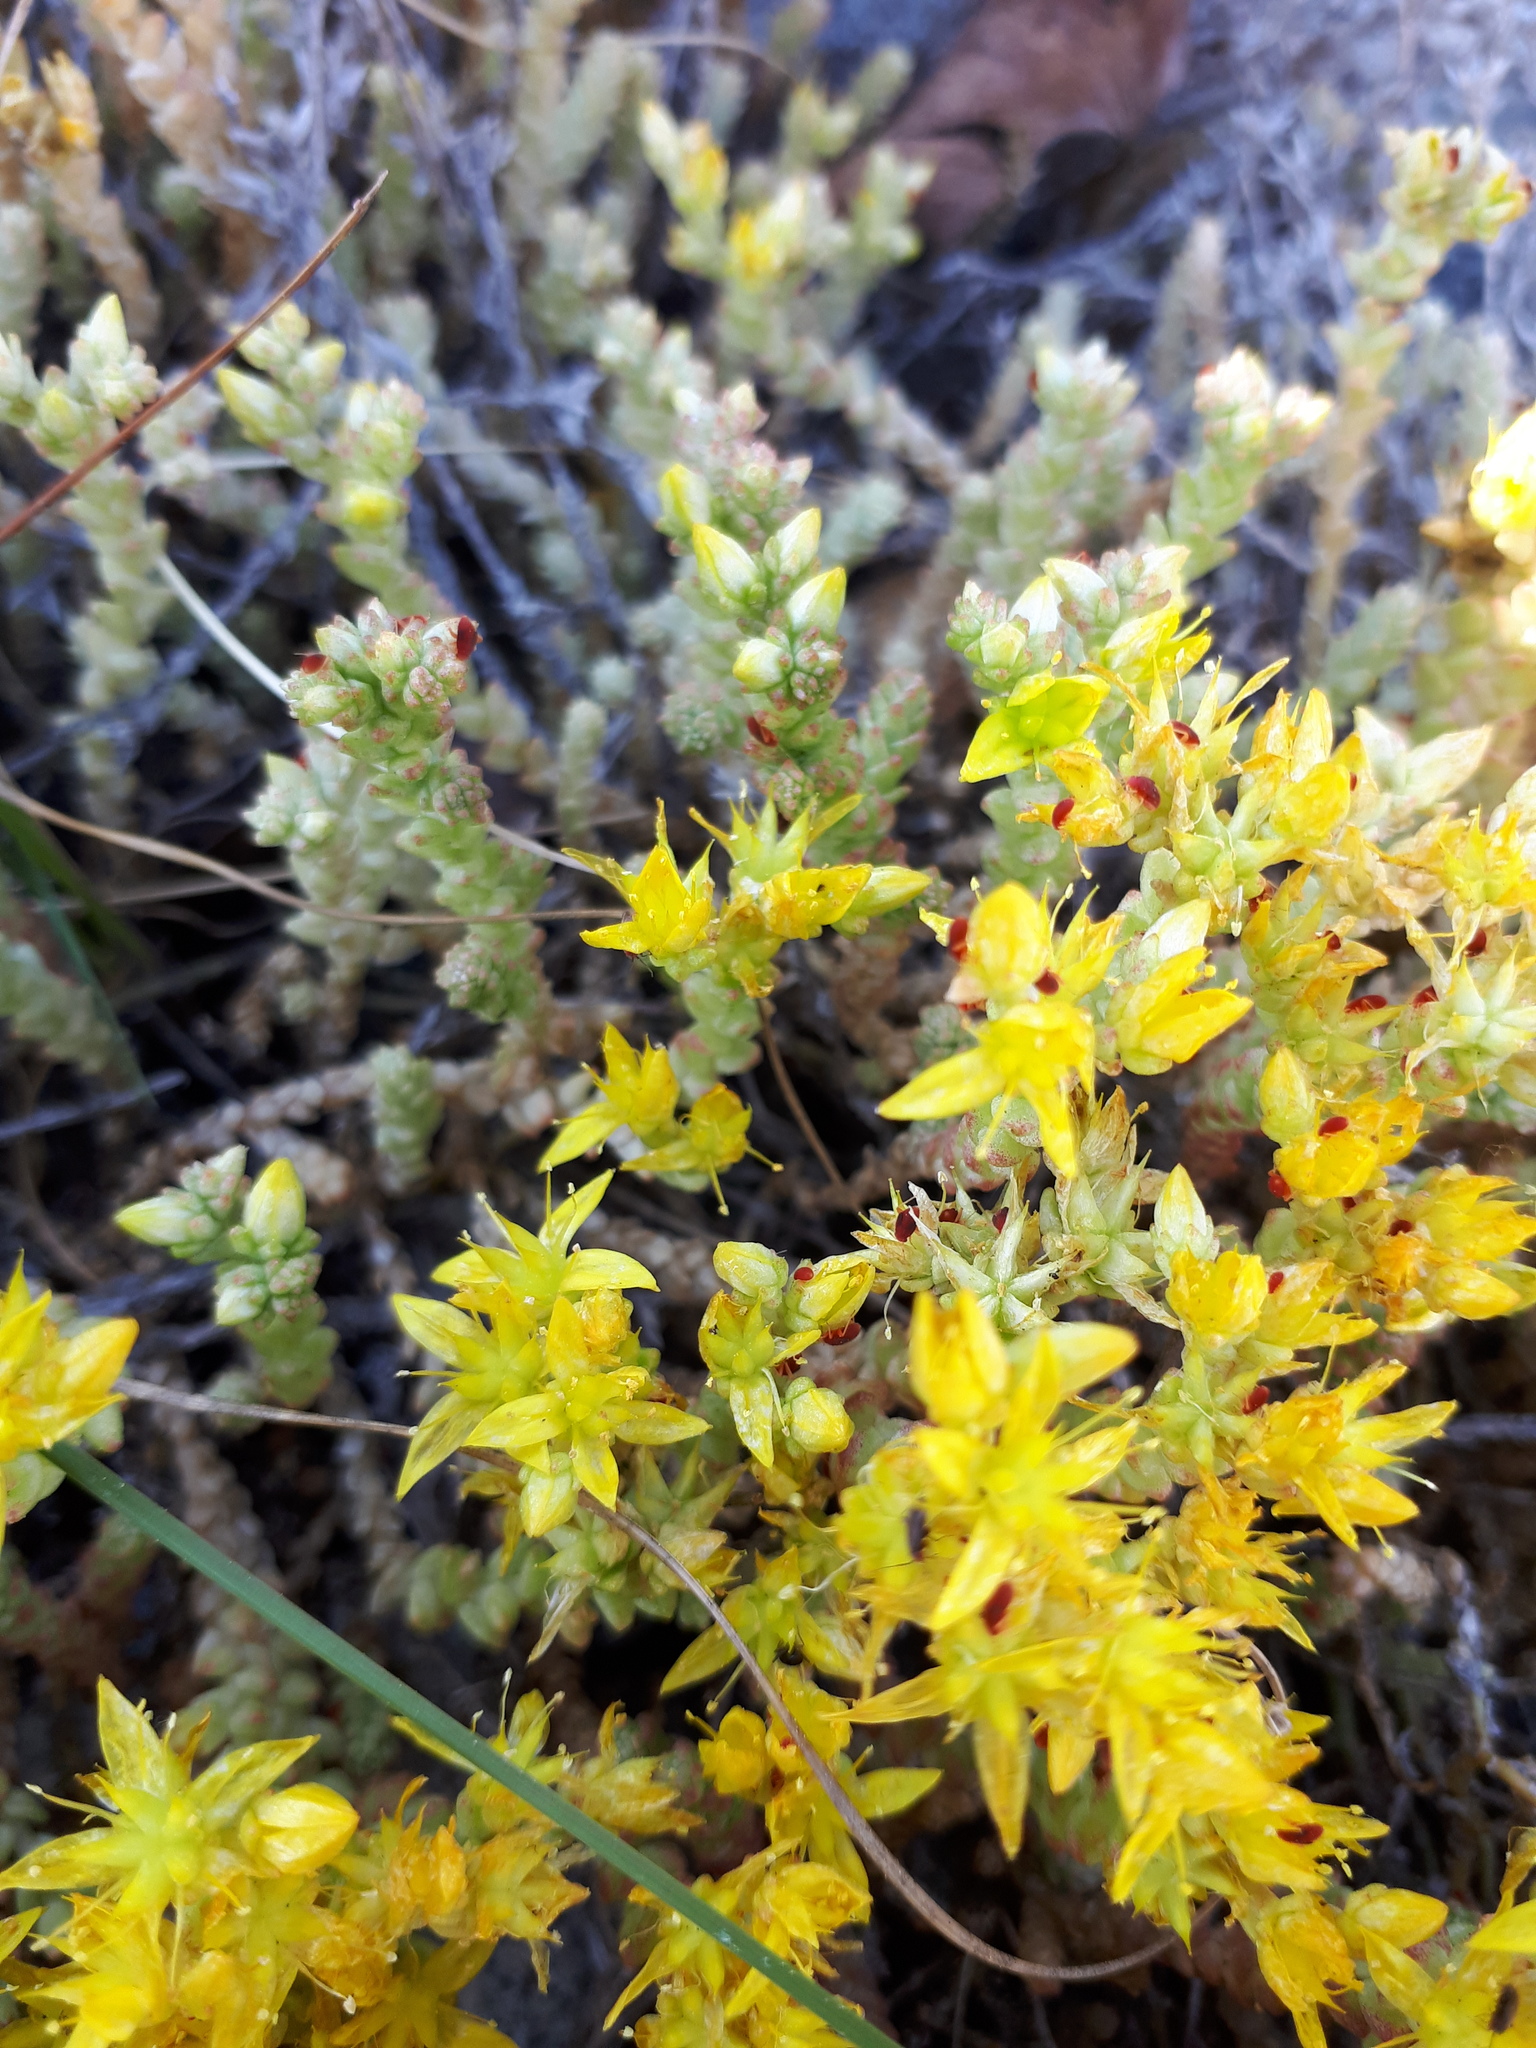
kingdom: Plantae
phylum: Tracheophyta
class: Magnoliopsida
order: Saxifragales
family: Crassulaceae
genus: Sedum
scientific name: Sedum acre
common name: Biting stonecrop
